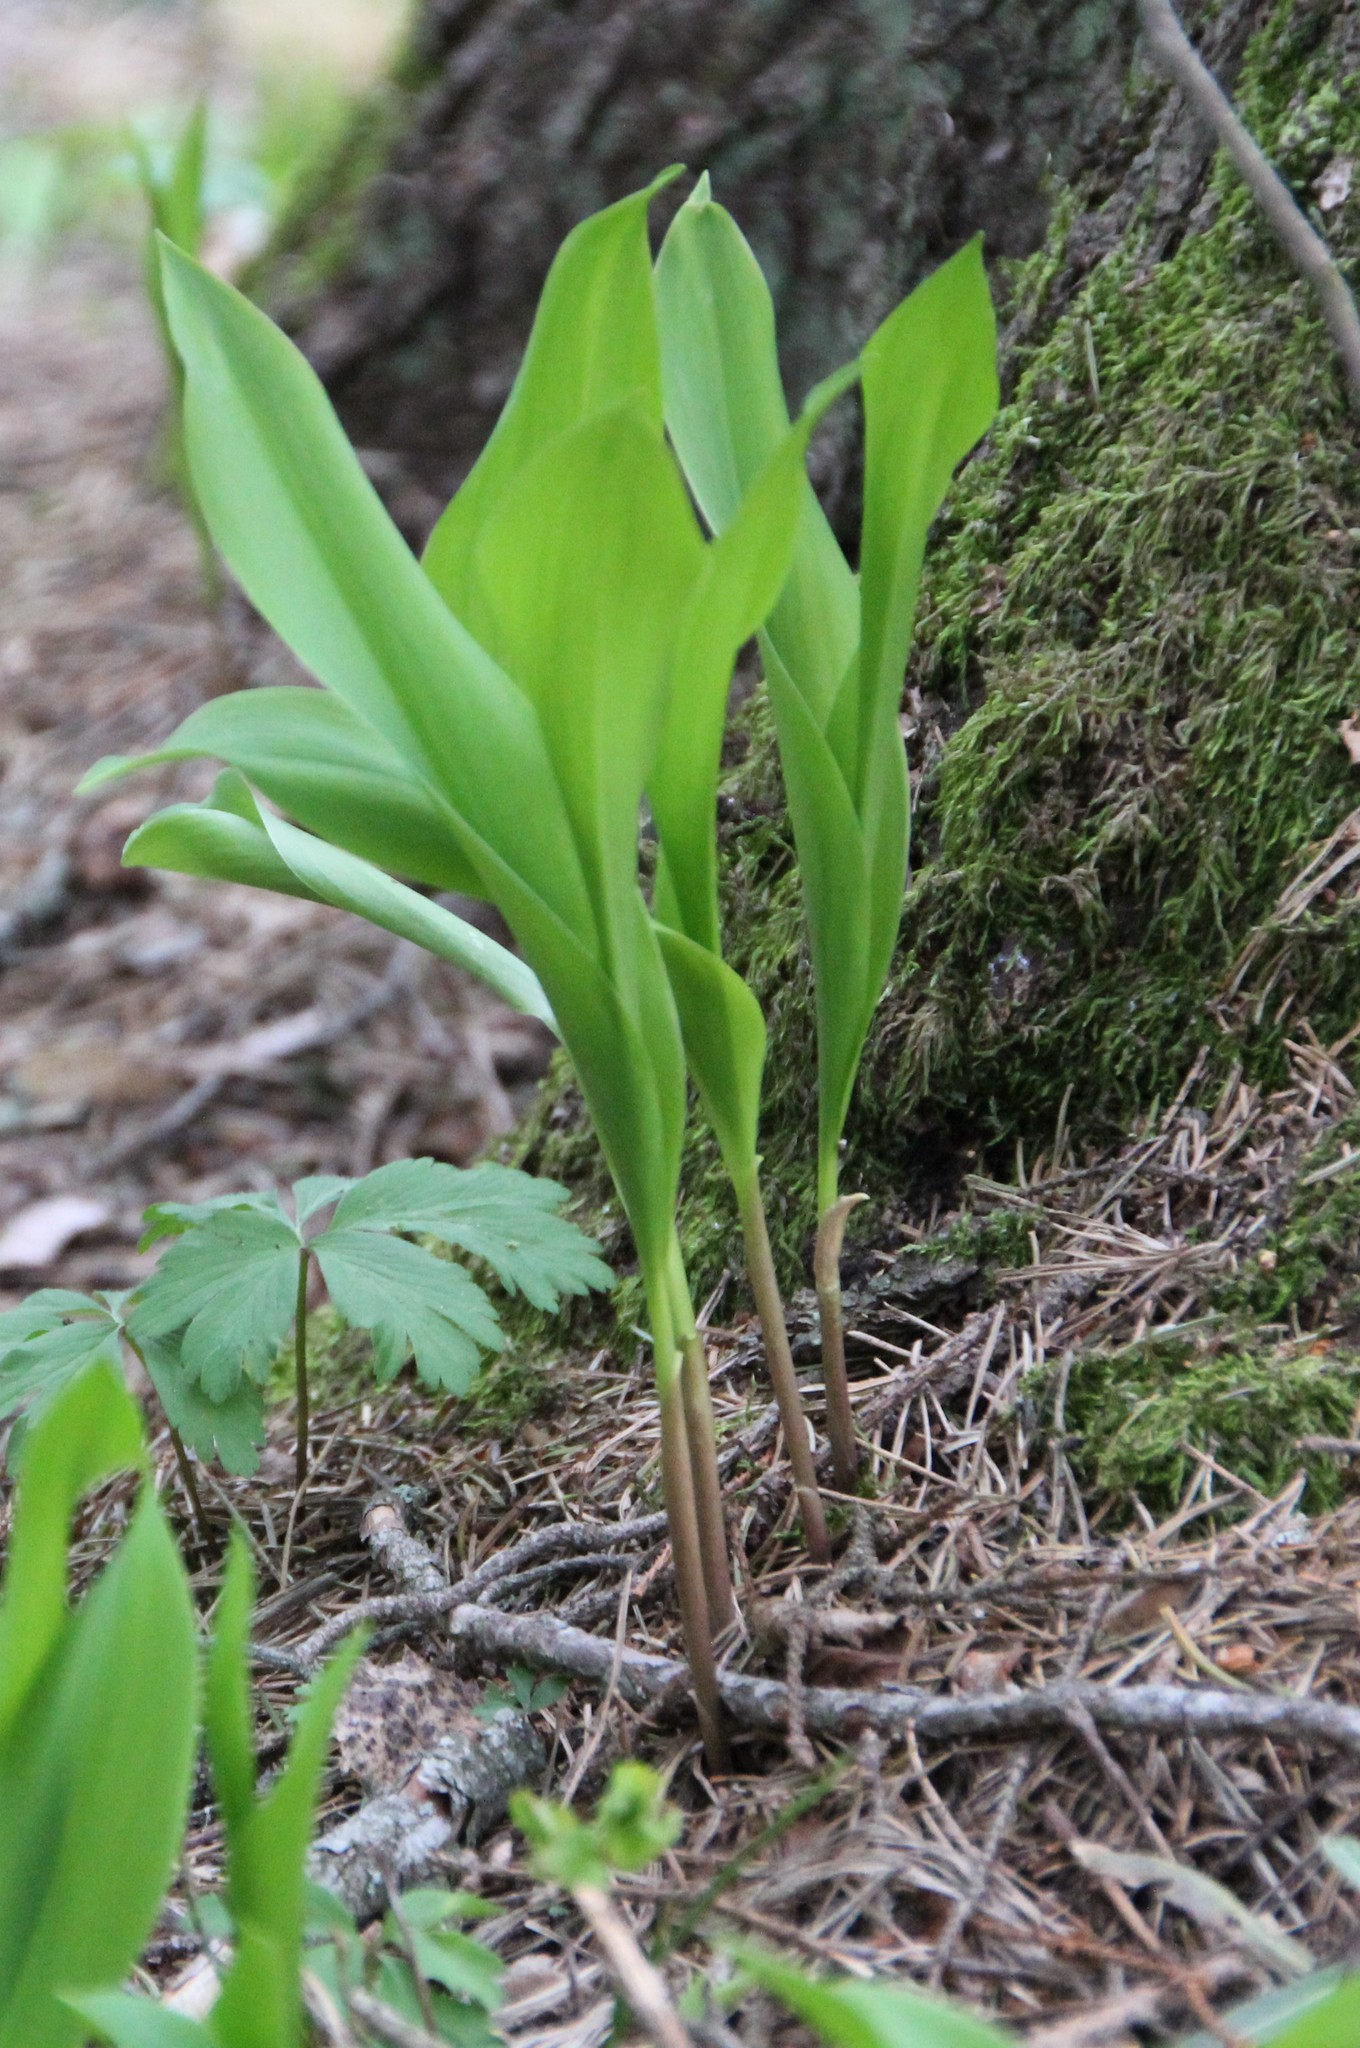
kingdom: Plantae
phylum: Tracheophyta
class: Liliopsida
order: Asparagales
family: Asparagaceae
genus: Convallaria
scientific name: Convallaria majalis
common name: Lily-of-the-valley
